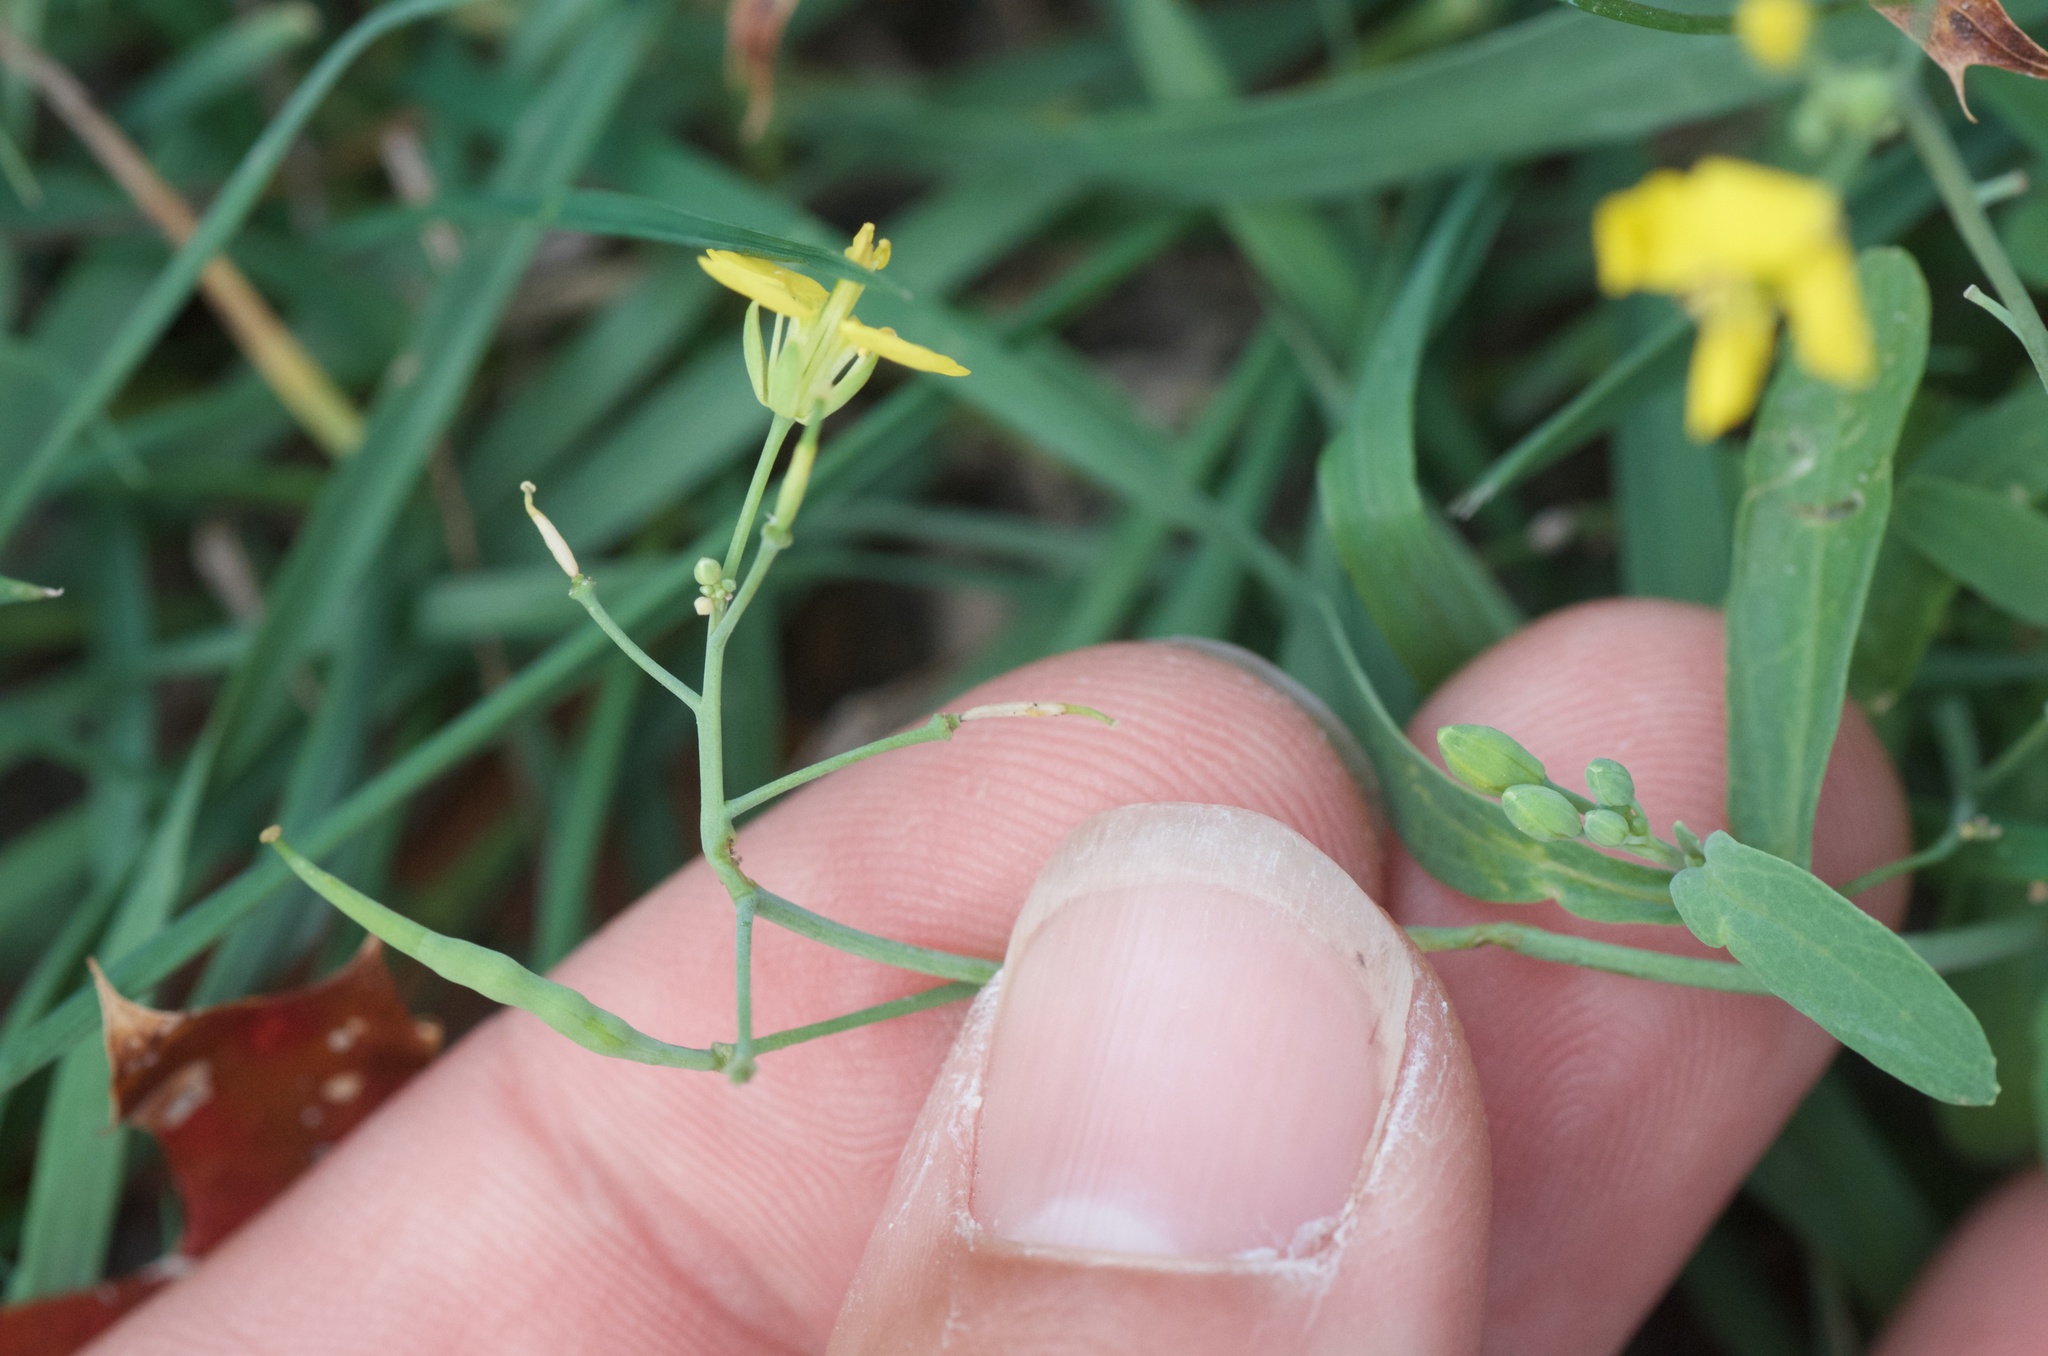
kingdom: Plantae
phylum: Tracheophyta
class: Magnoliopsida
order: Brassicales
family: Brassicaceae
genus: Brassica
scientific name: Brassica rapa
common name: Field mustard
